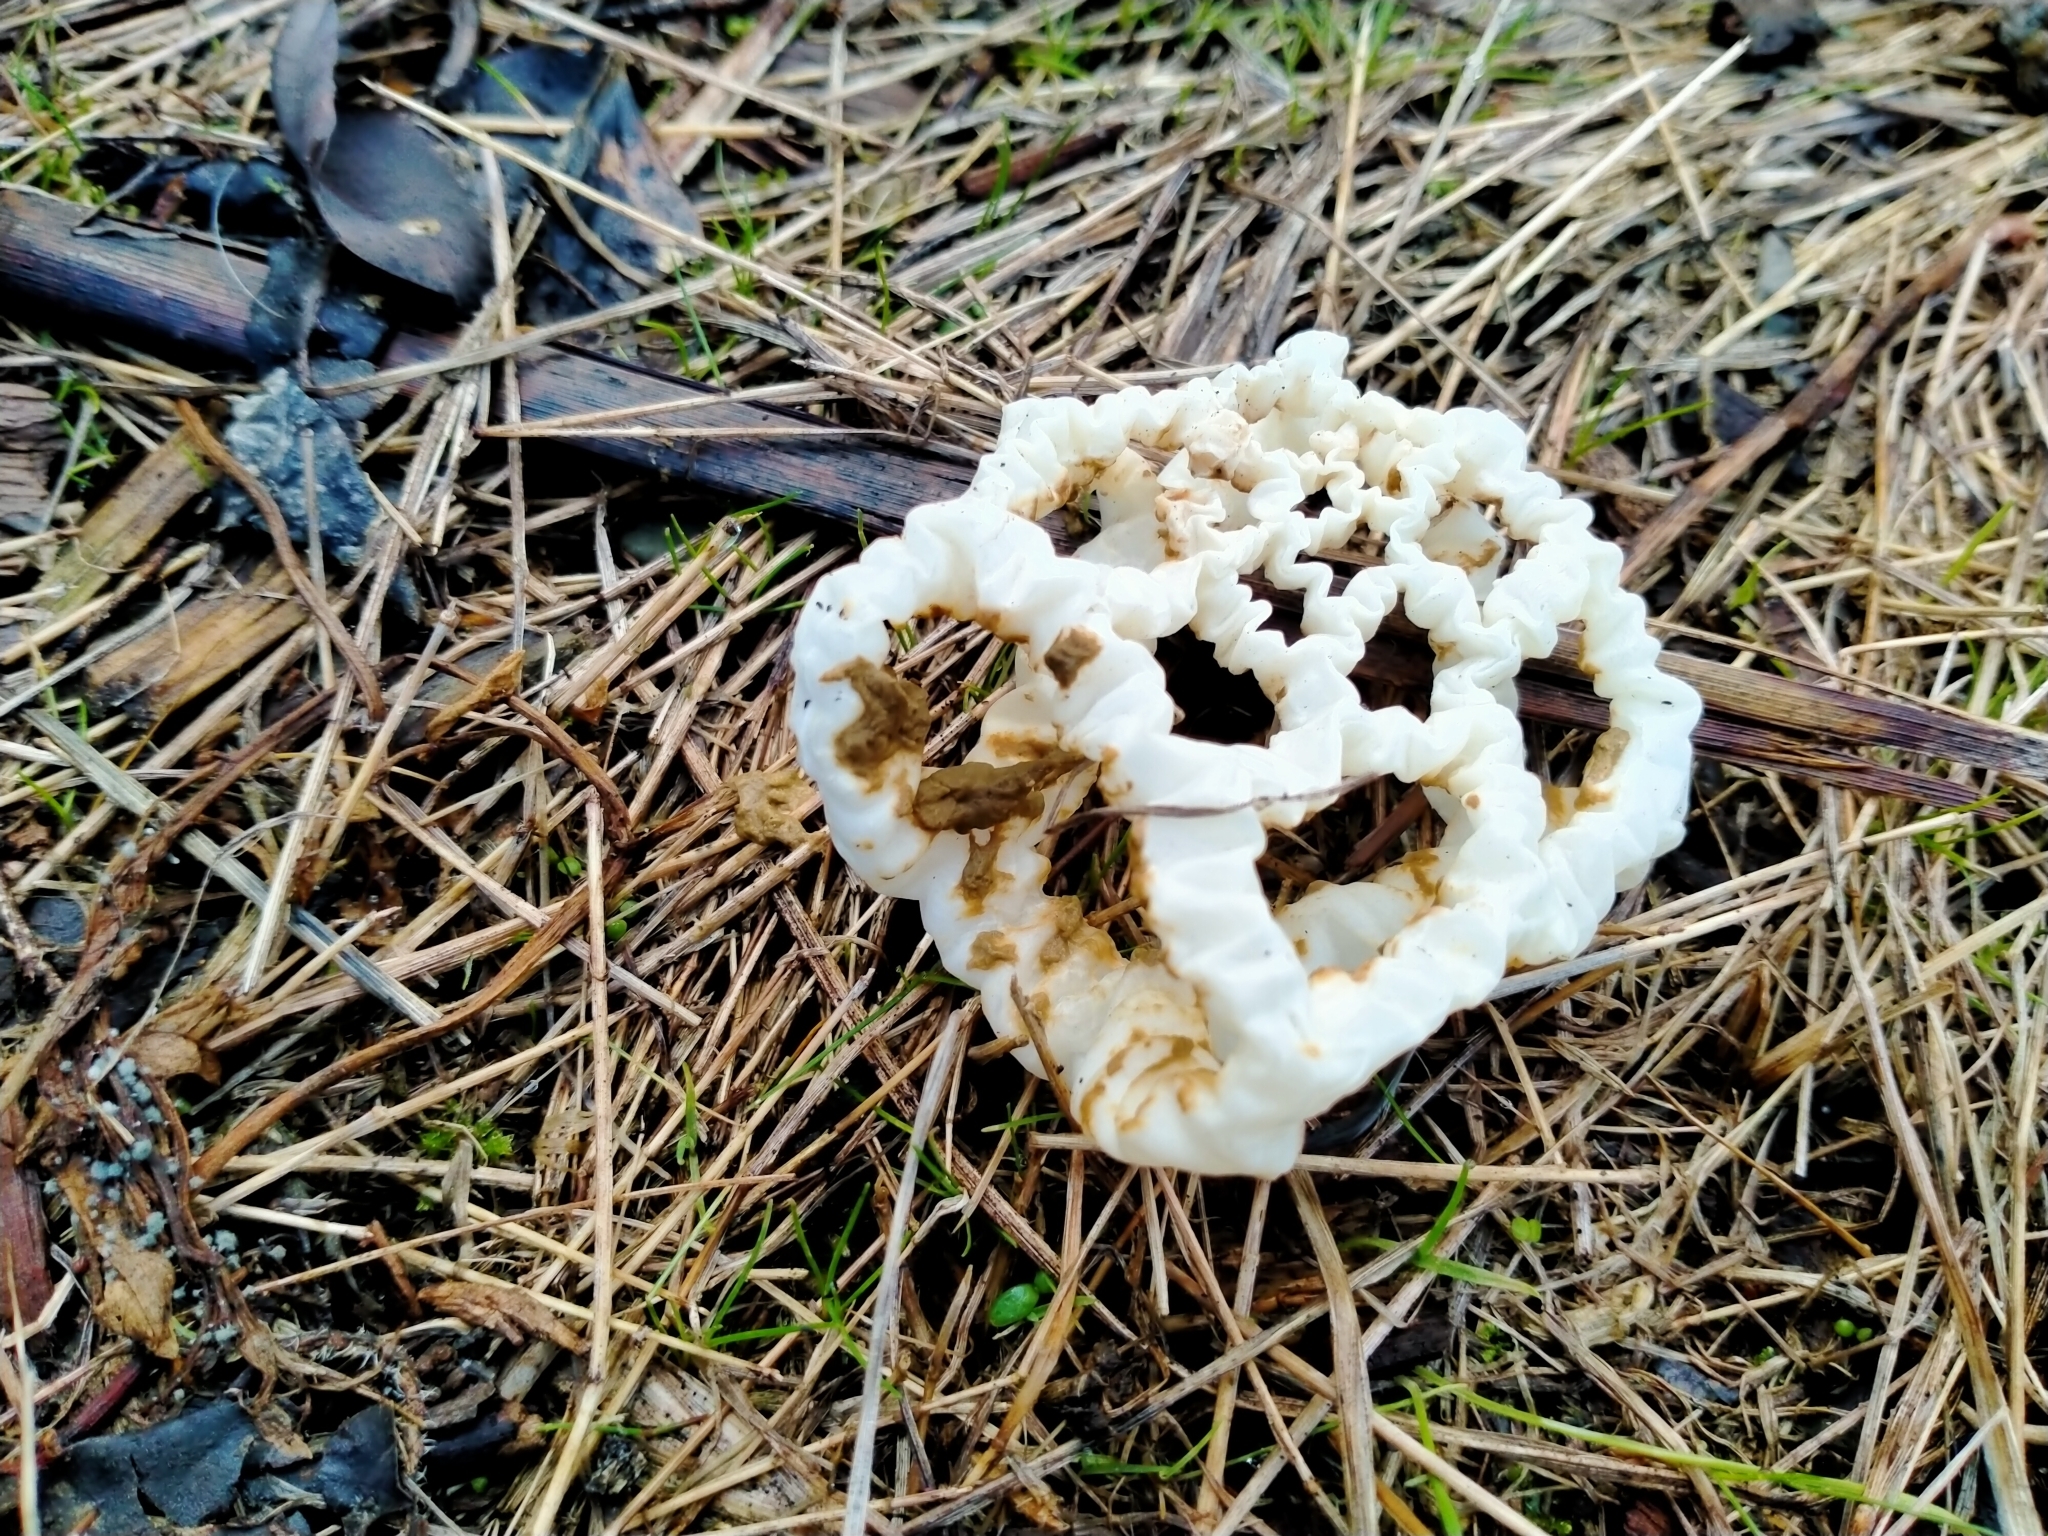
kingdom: Fungi
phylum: Basidiomycota
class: Agaricomycetes
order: Phallales
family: Phallaceae
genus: Ileodictyon
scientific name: Ileodictyon cibarium
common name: Basket fungus
